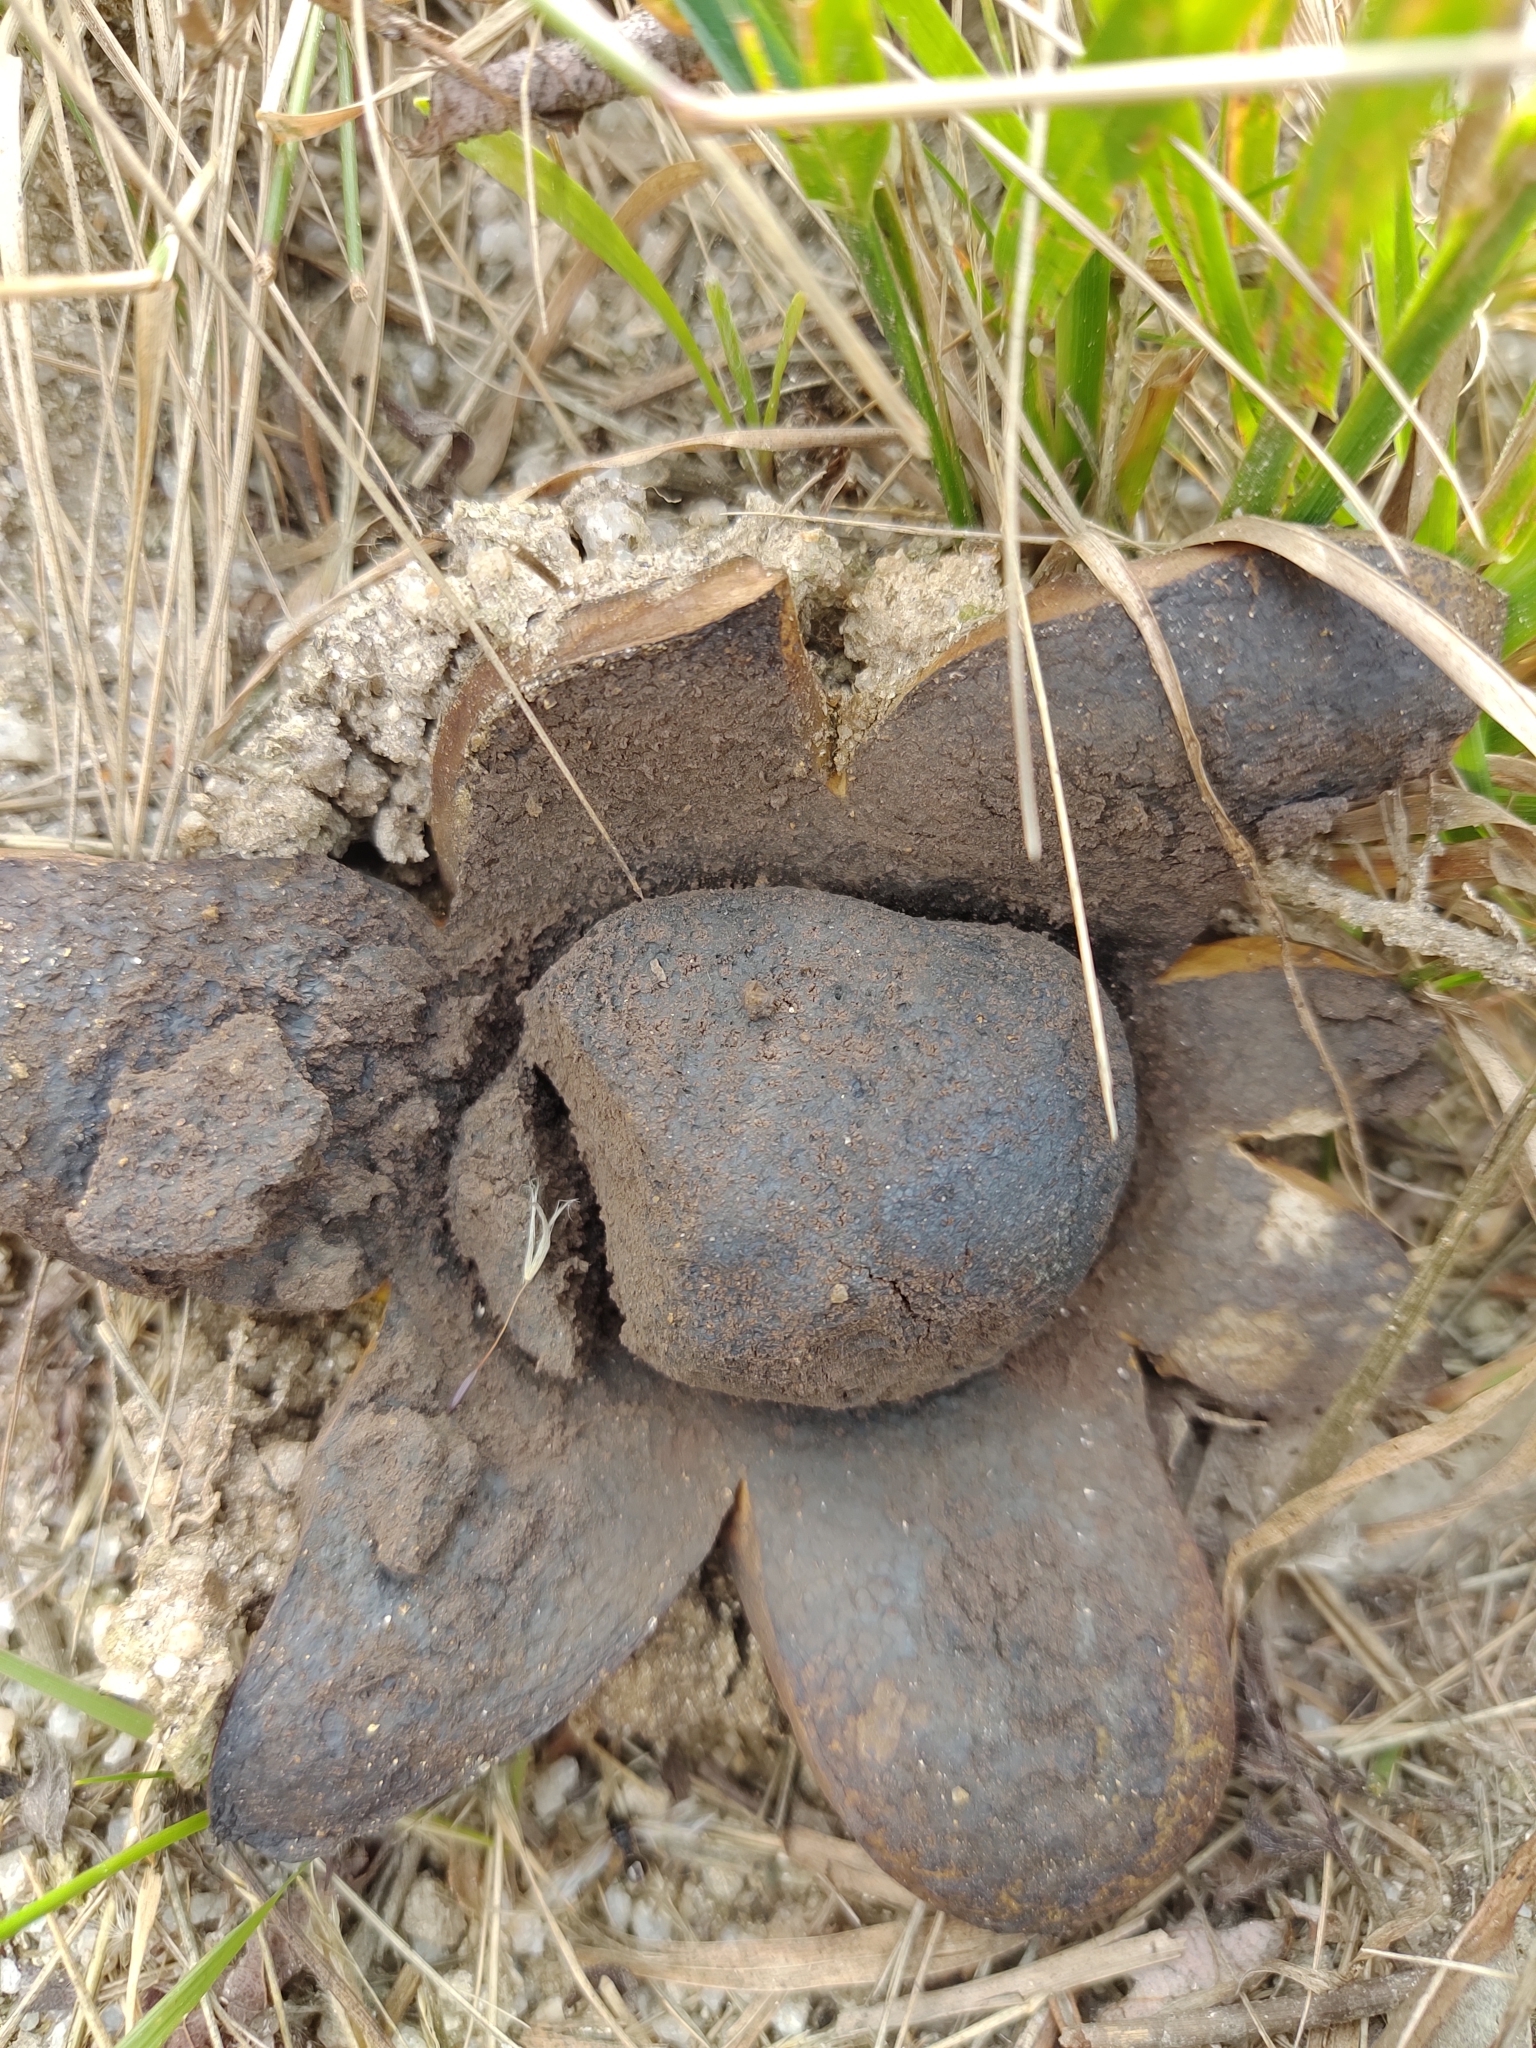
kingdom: Fungi
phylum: Basidiomycota
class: Agaricomycetes
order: Boletales
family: Sclerodermataceae
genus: Scleroderma
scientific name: Scleroderma polyrhizum
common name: Many-rooted earthball
